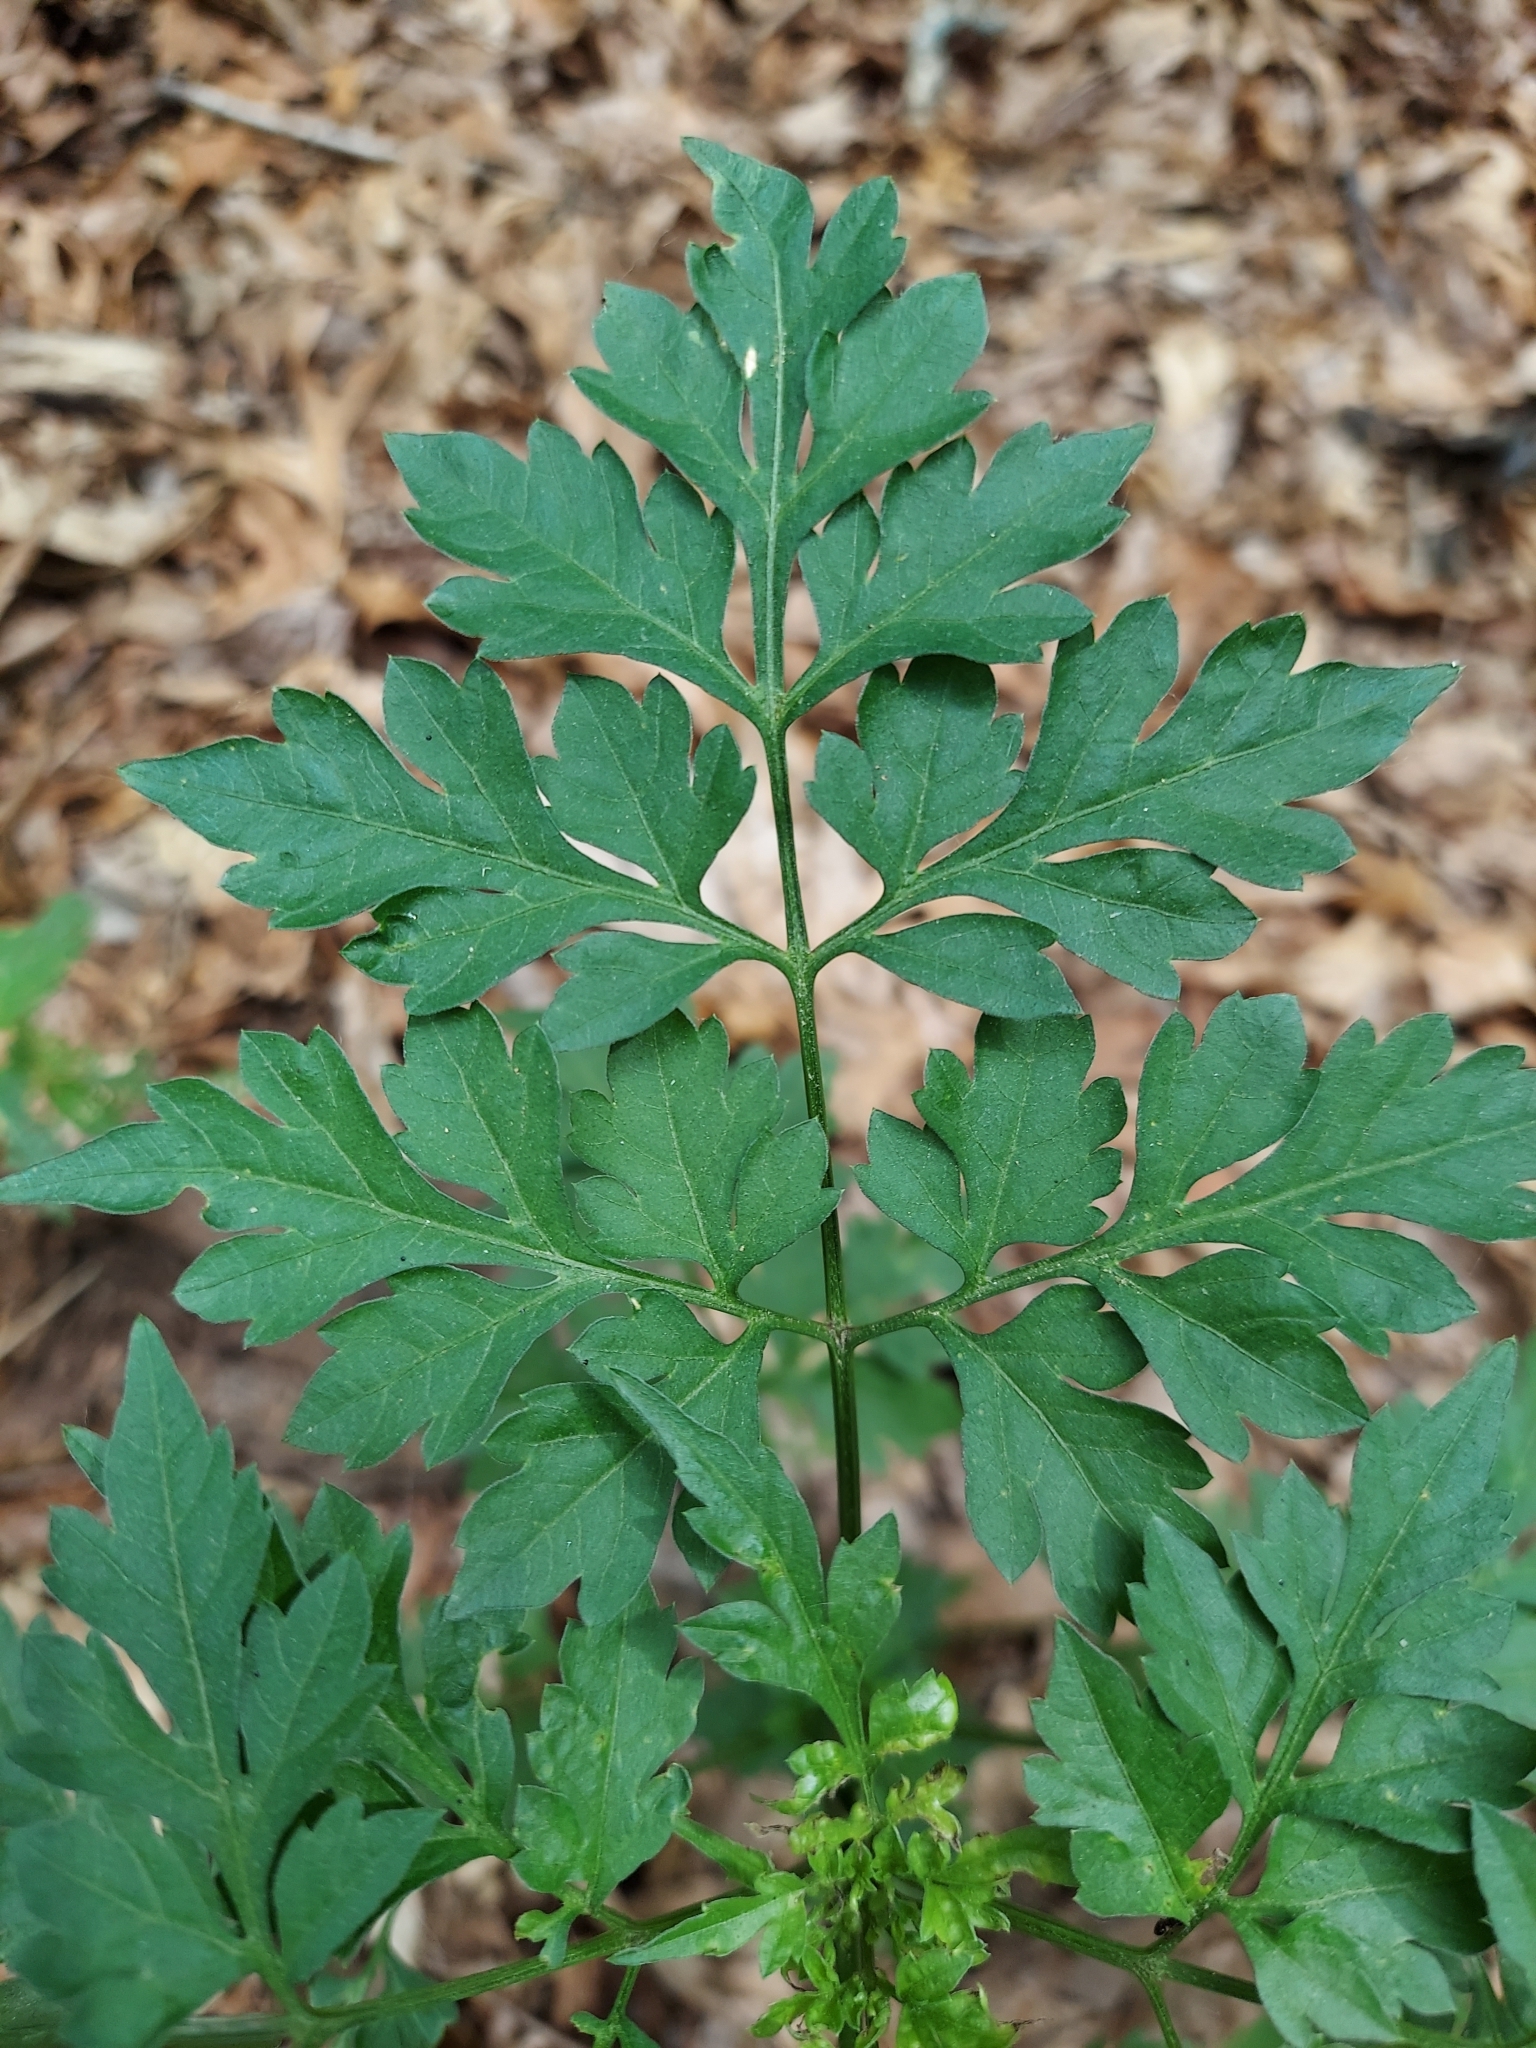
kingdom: Plantae
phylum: Tracheophyta
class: Magnoliopsida
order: Asterales
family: Asteraceae
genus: Bidens
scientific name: Bidens bipinnata
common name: Spanish-needles
